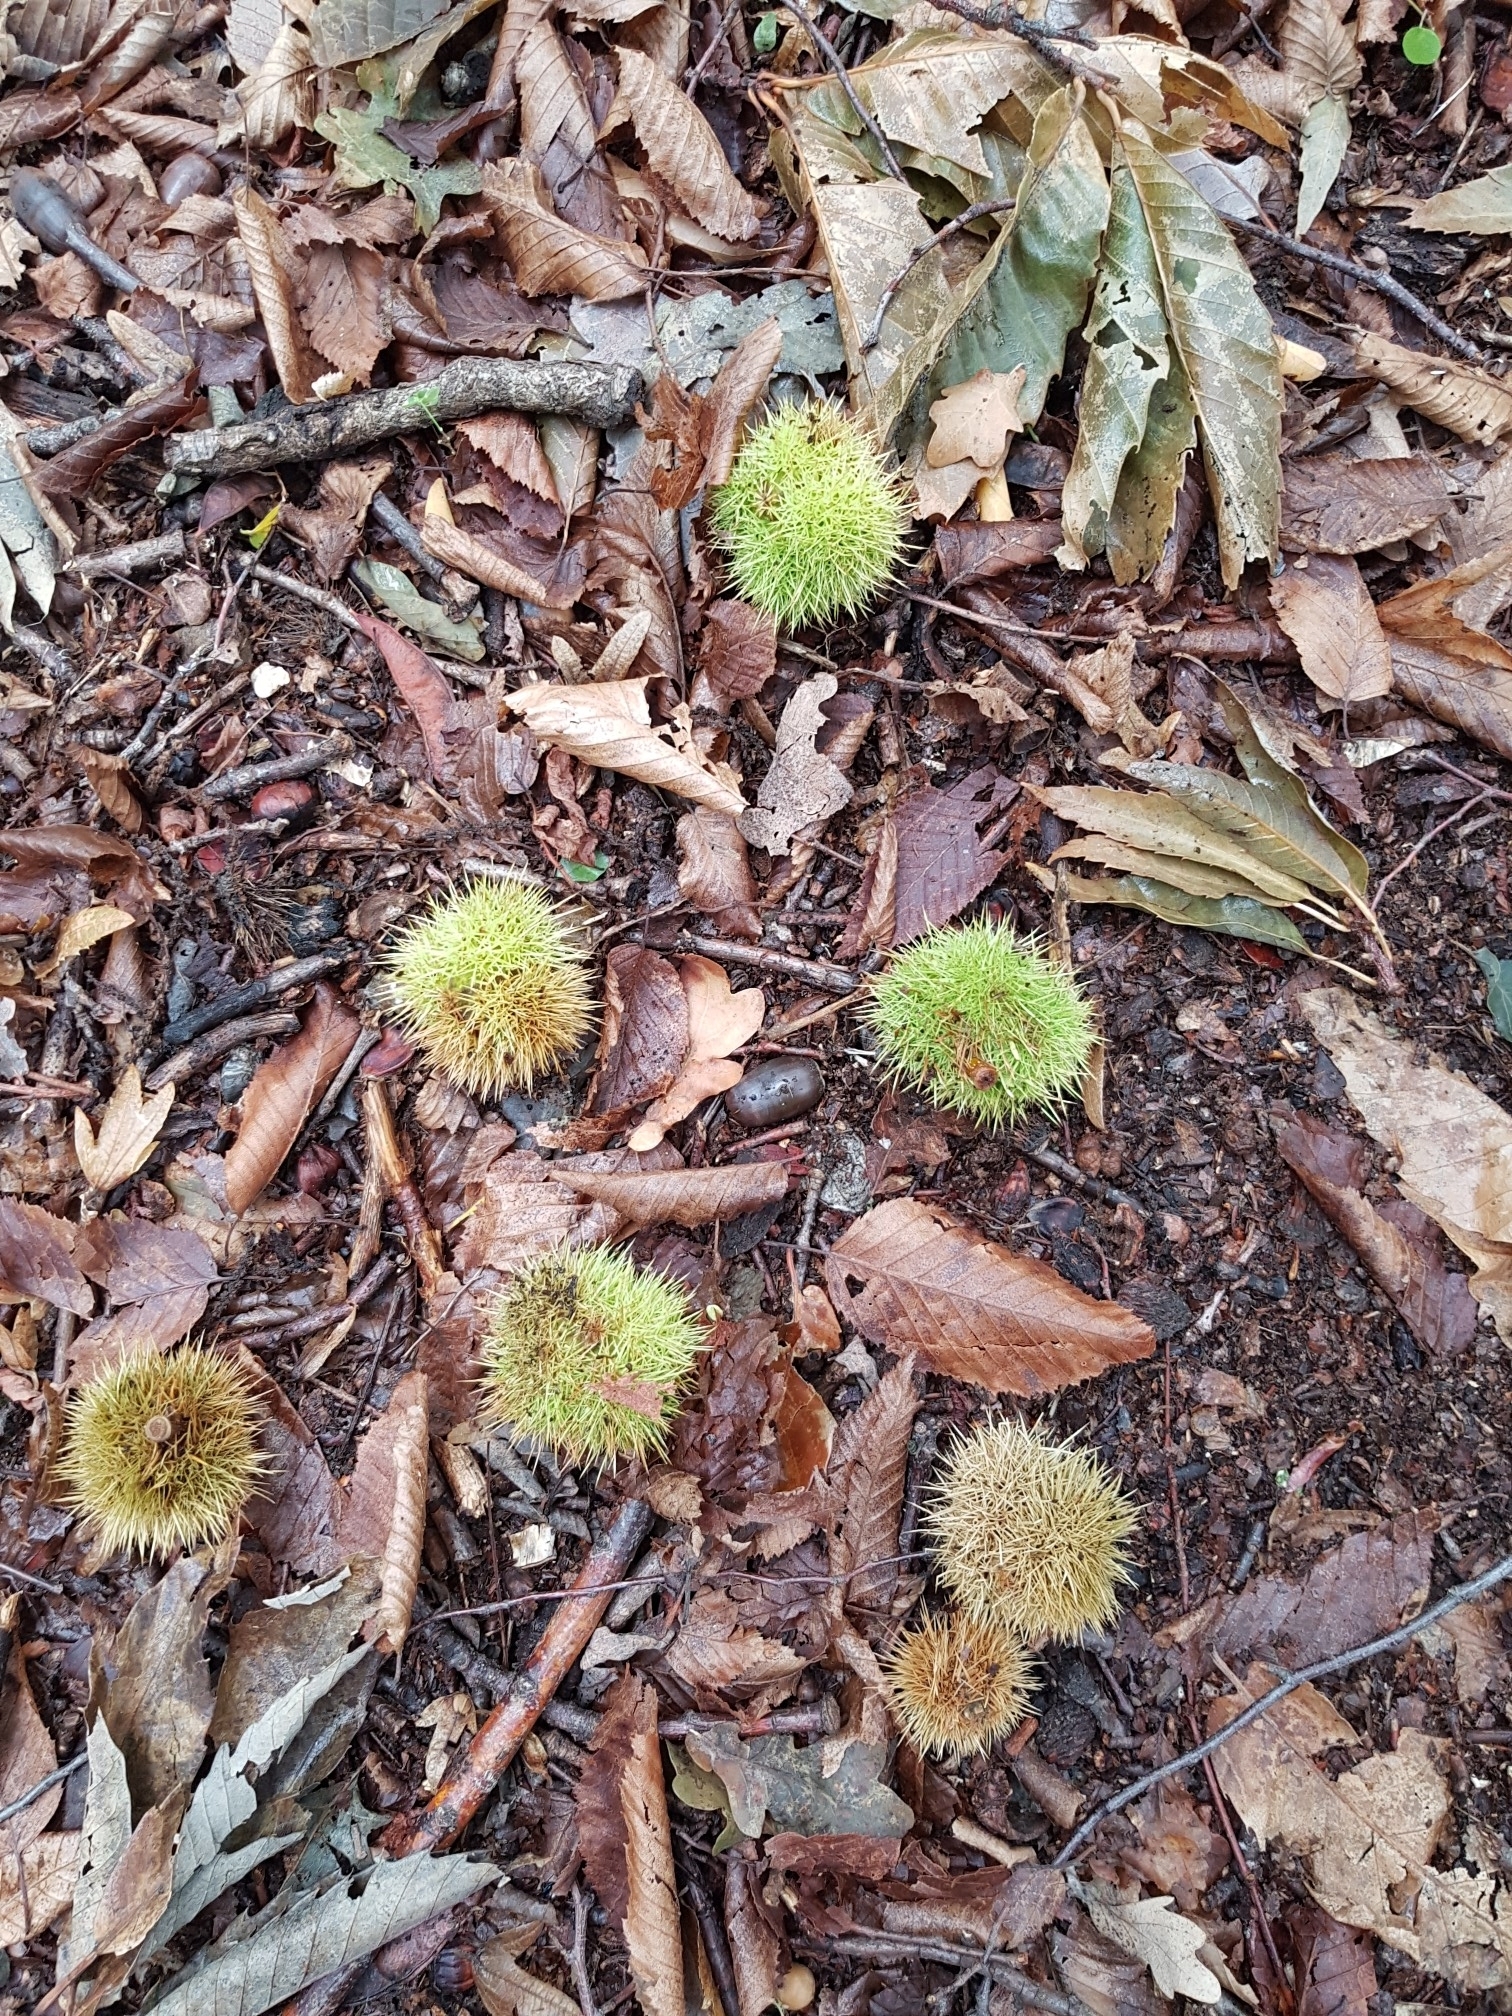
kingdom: Plantae
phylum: Tracheophyta
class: Magnoliopsida
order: Fagales
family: Fagaceae
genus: Castanea
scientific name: Castanea sativa
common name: Sweet chestnut
